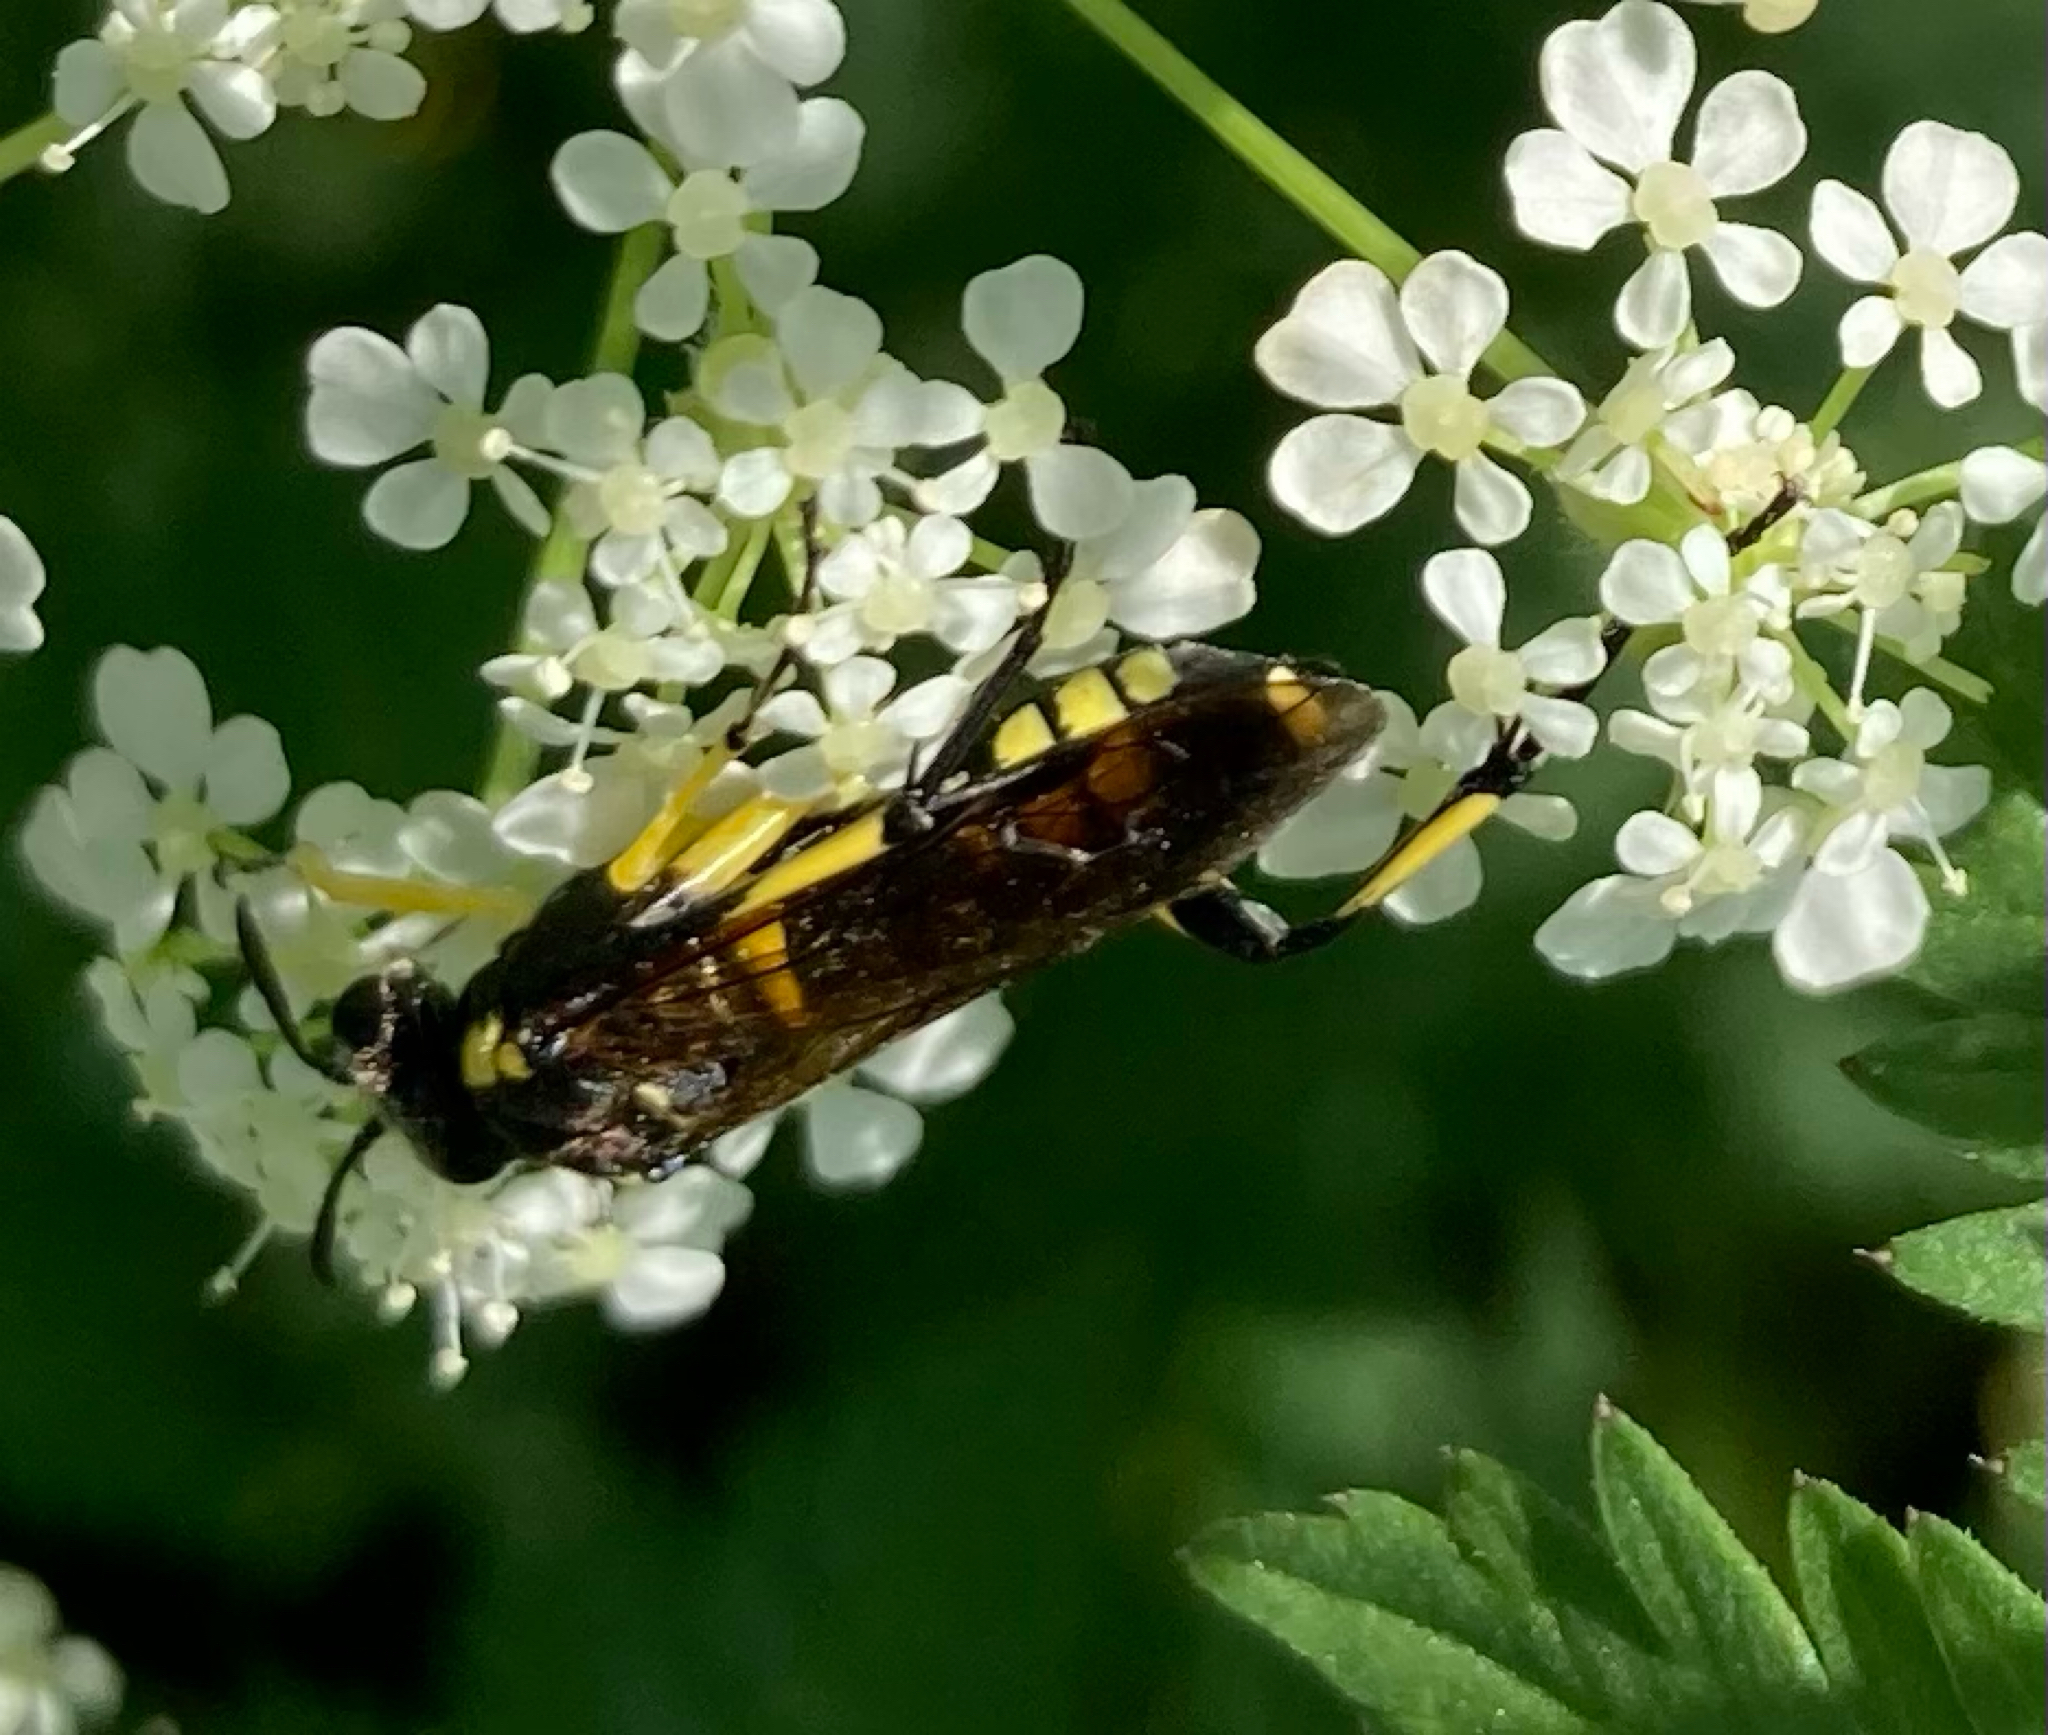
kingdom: Animalia
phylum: Arthropoda
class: Insecta
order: Hymenoptera
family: Tenthredinidae
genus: Macrophya
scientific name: Macrophya montana
